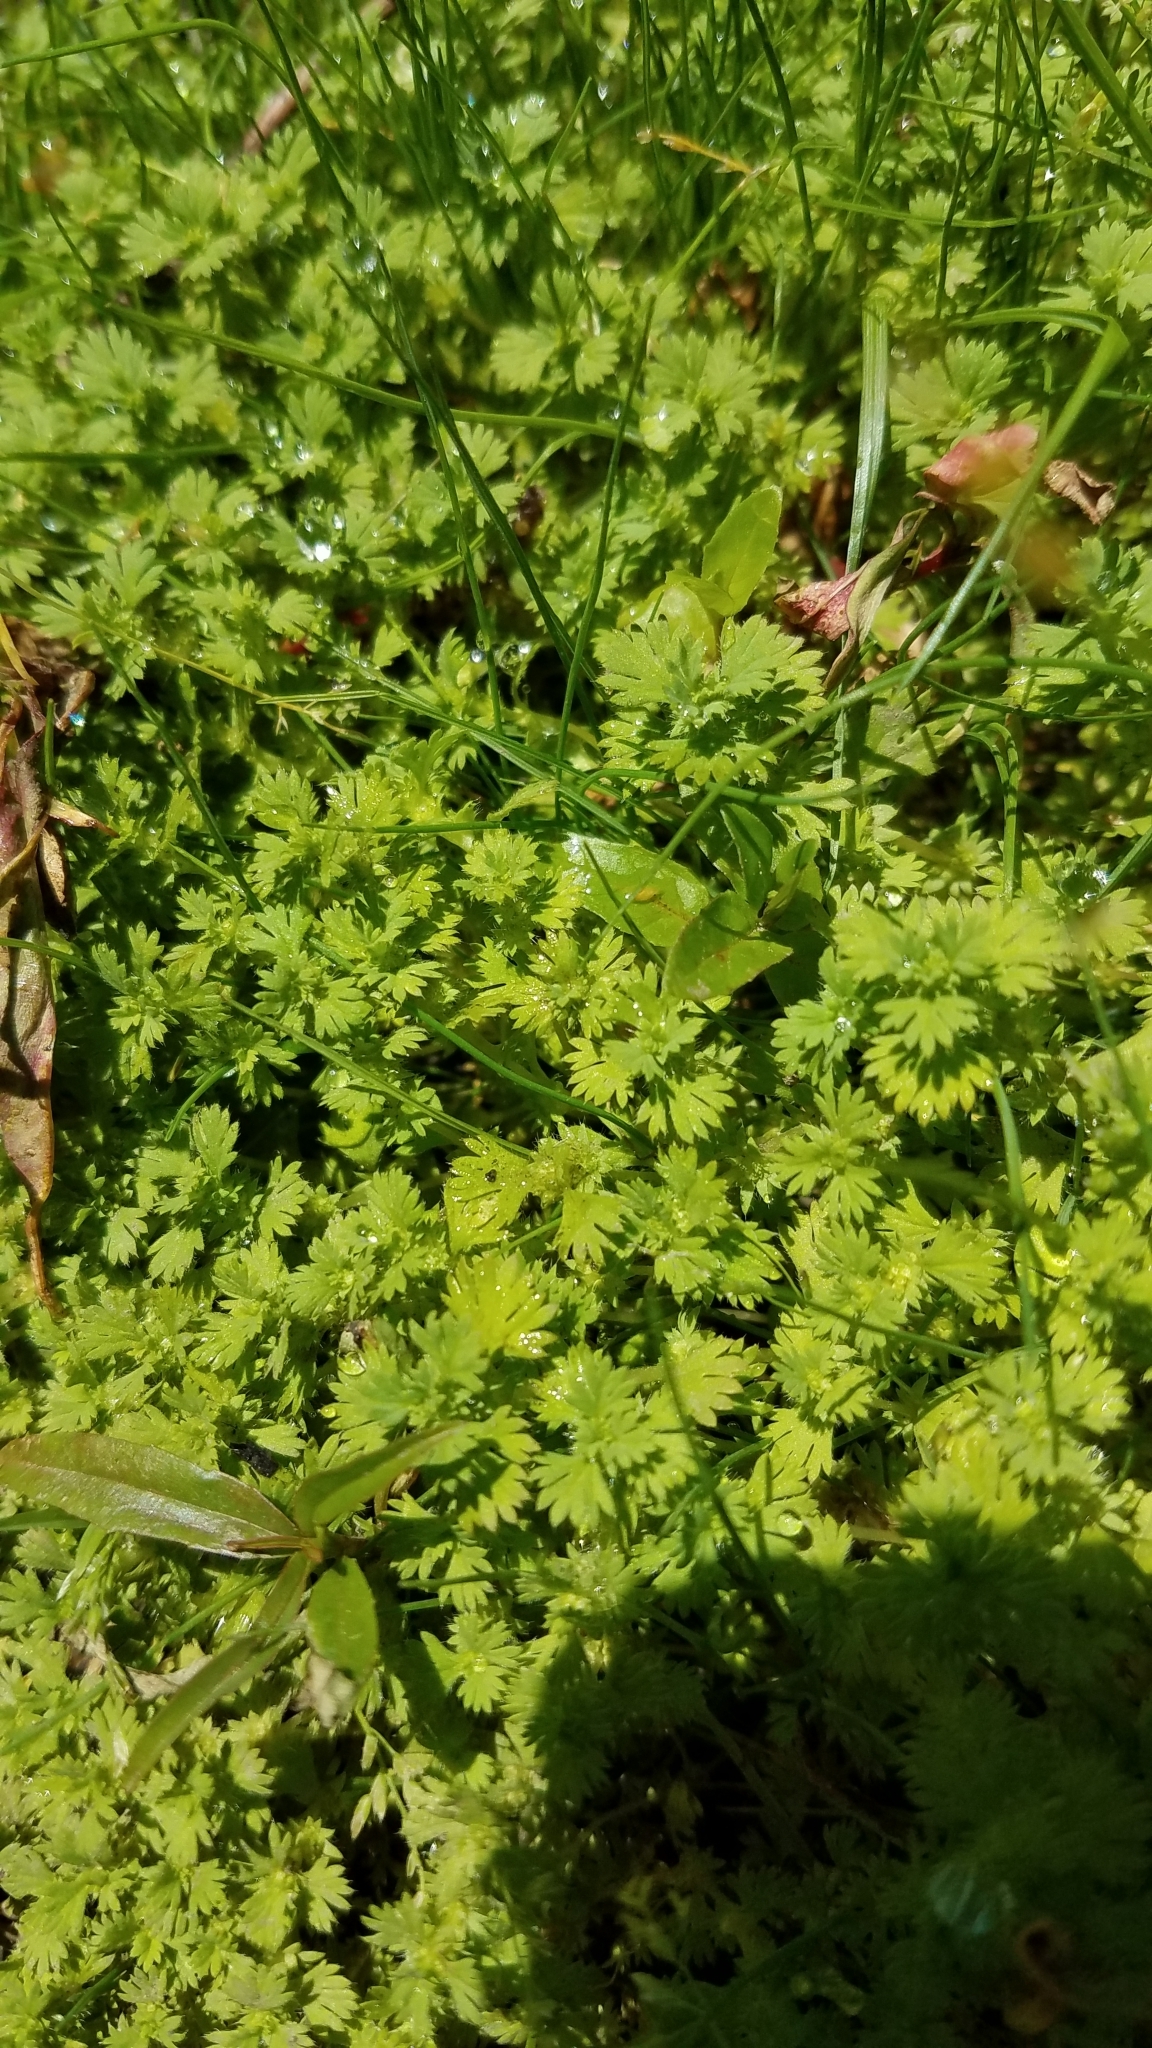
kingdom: Plantae
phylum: Tracheophyta
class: Magnoliopsida
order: Rosales
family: Rosaceae
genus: Aphanes
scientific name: Aphanes arvensis
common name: Parsley-piert
